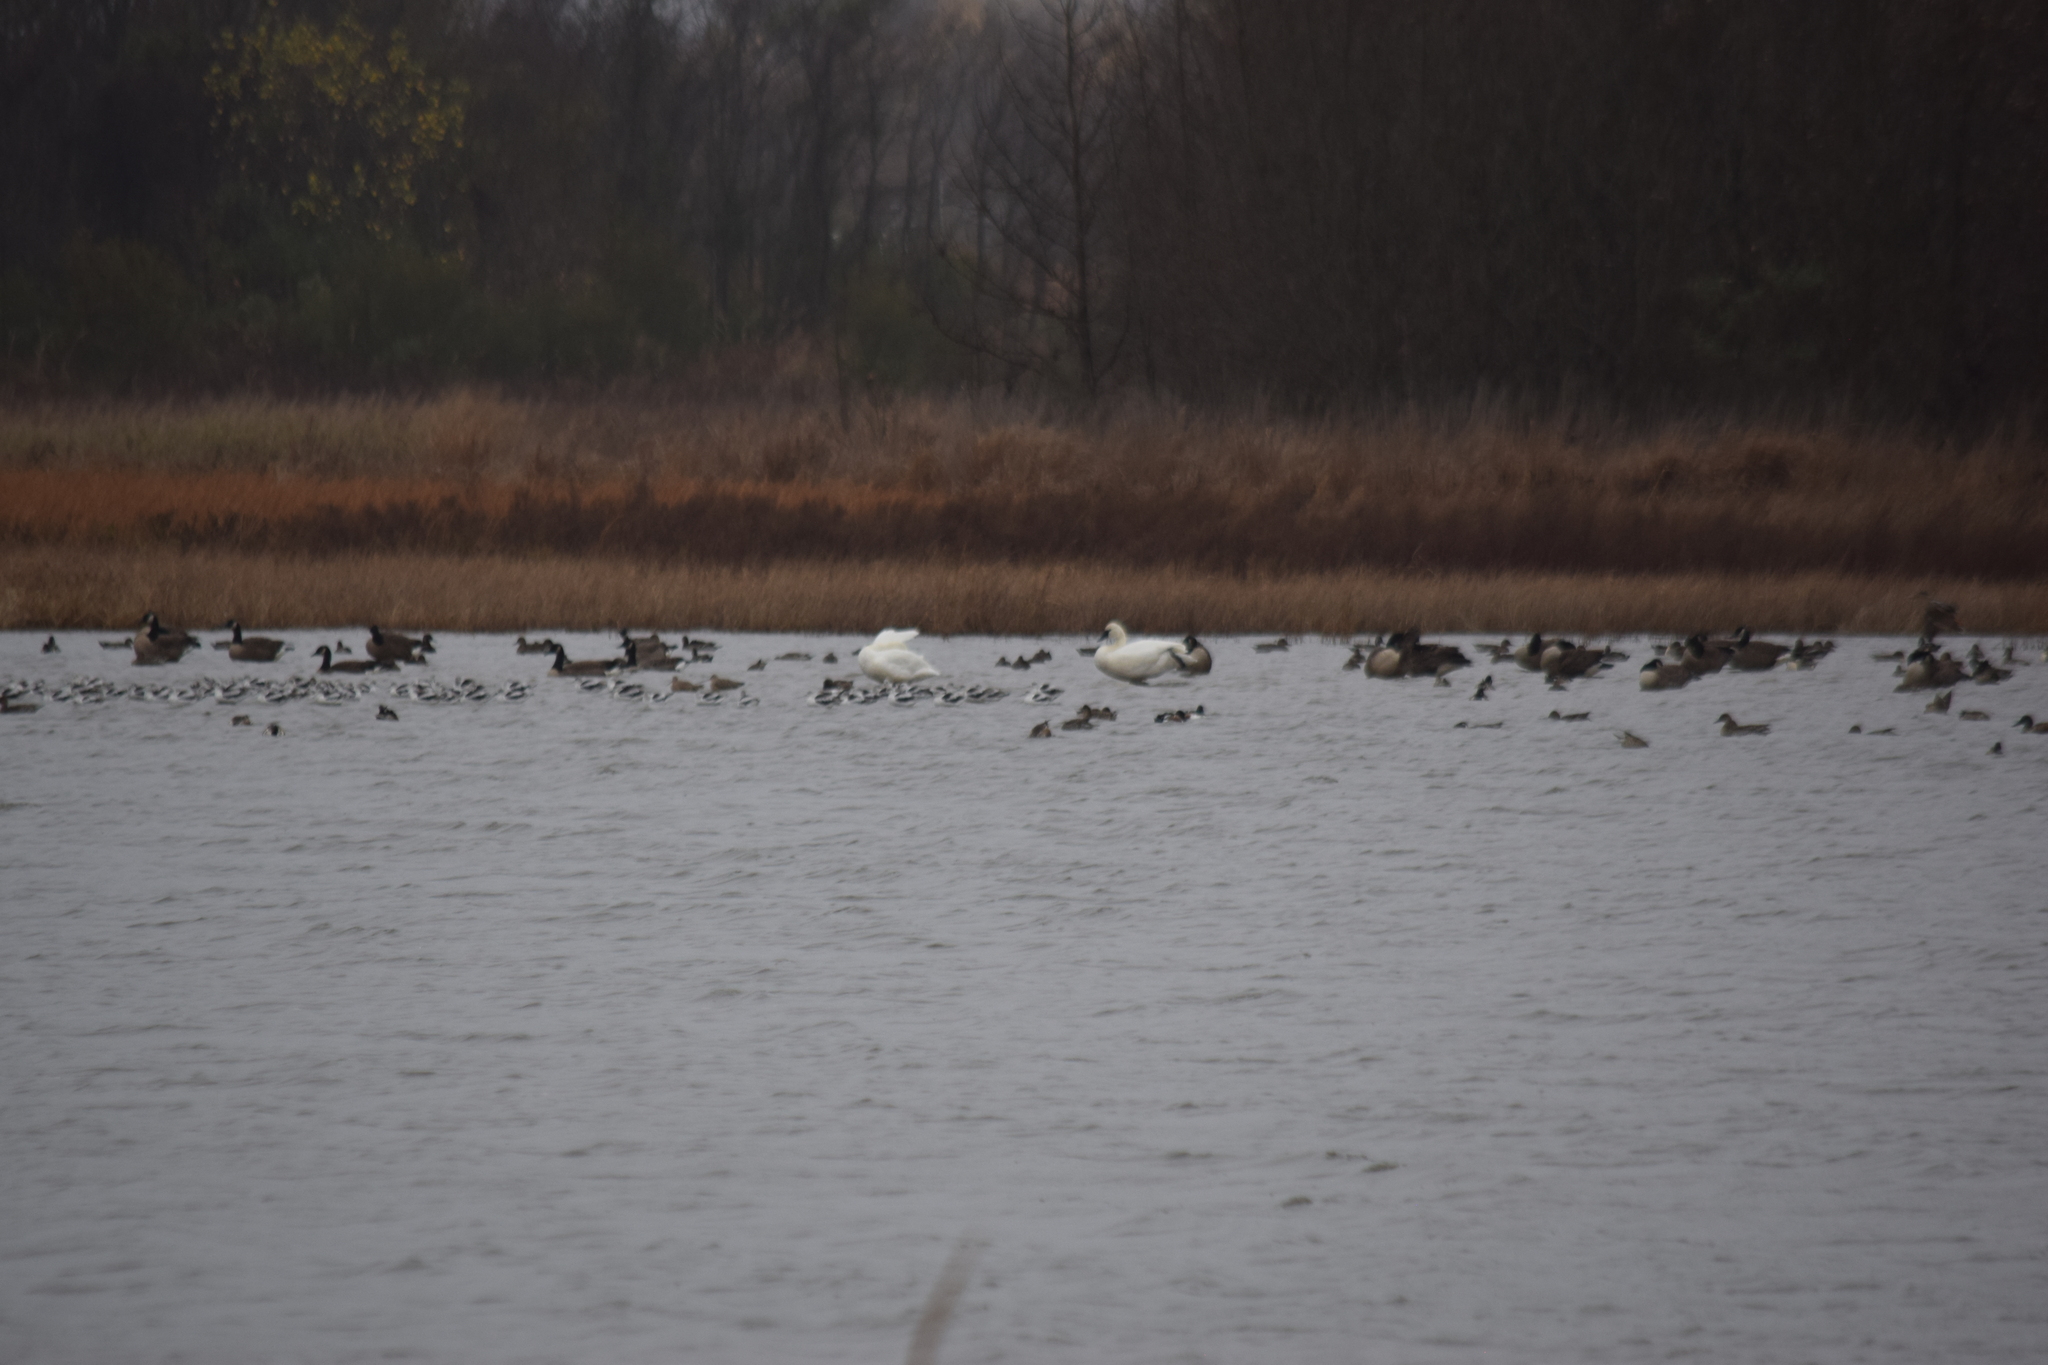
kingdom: Animalia
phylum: Chordata
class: Aves
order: Charadriiformes
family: Recurvirostridae
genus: Recurvirostra
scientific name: Recurvirostra americana
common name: American avocet
